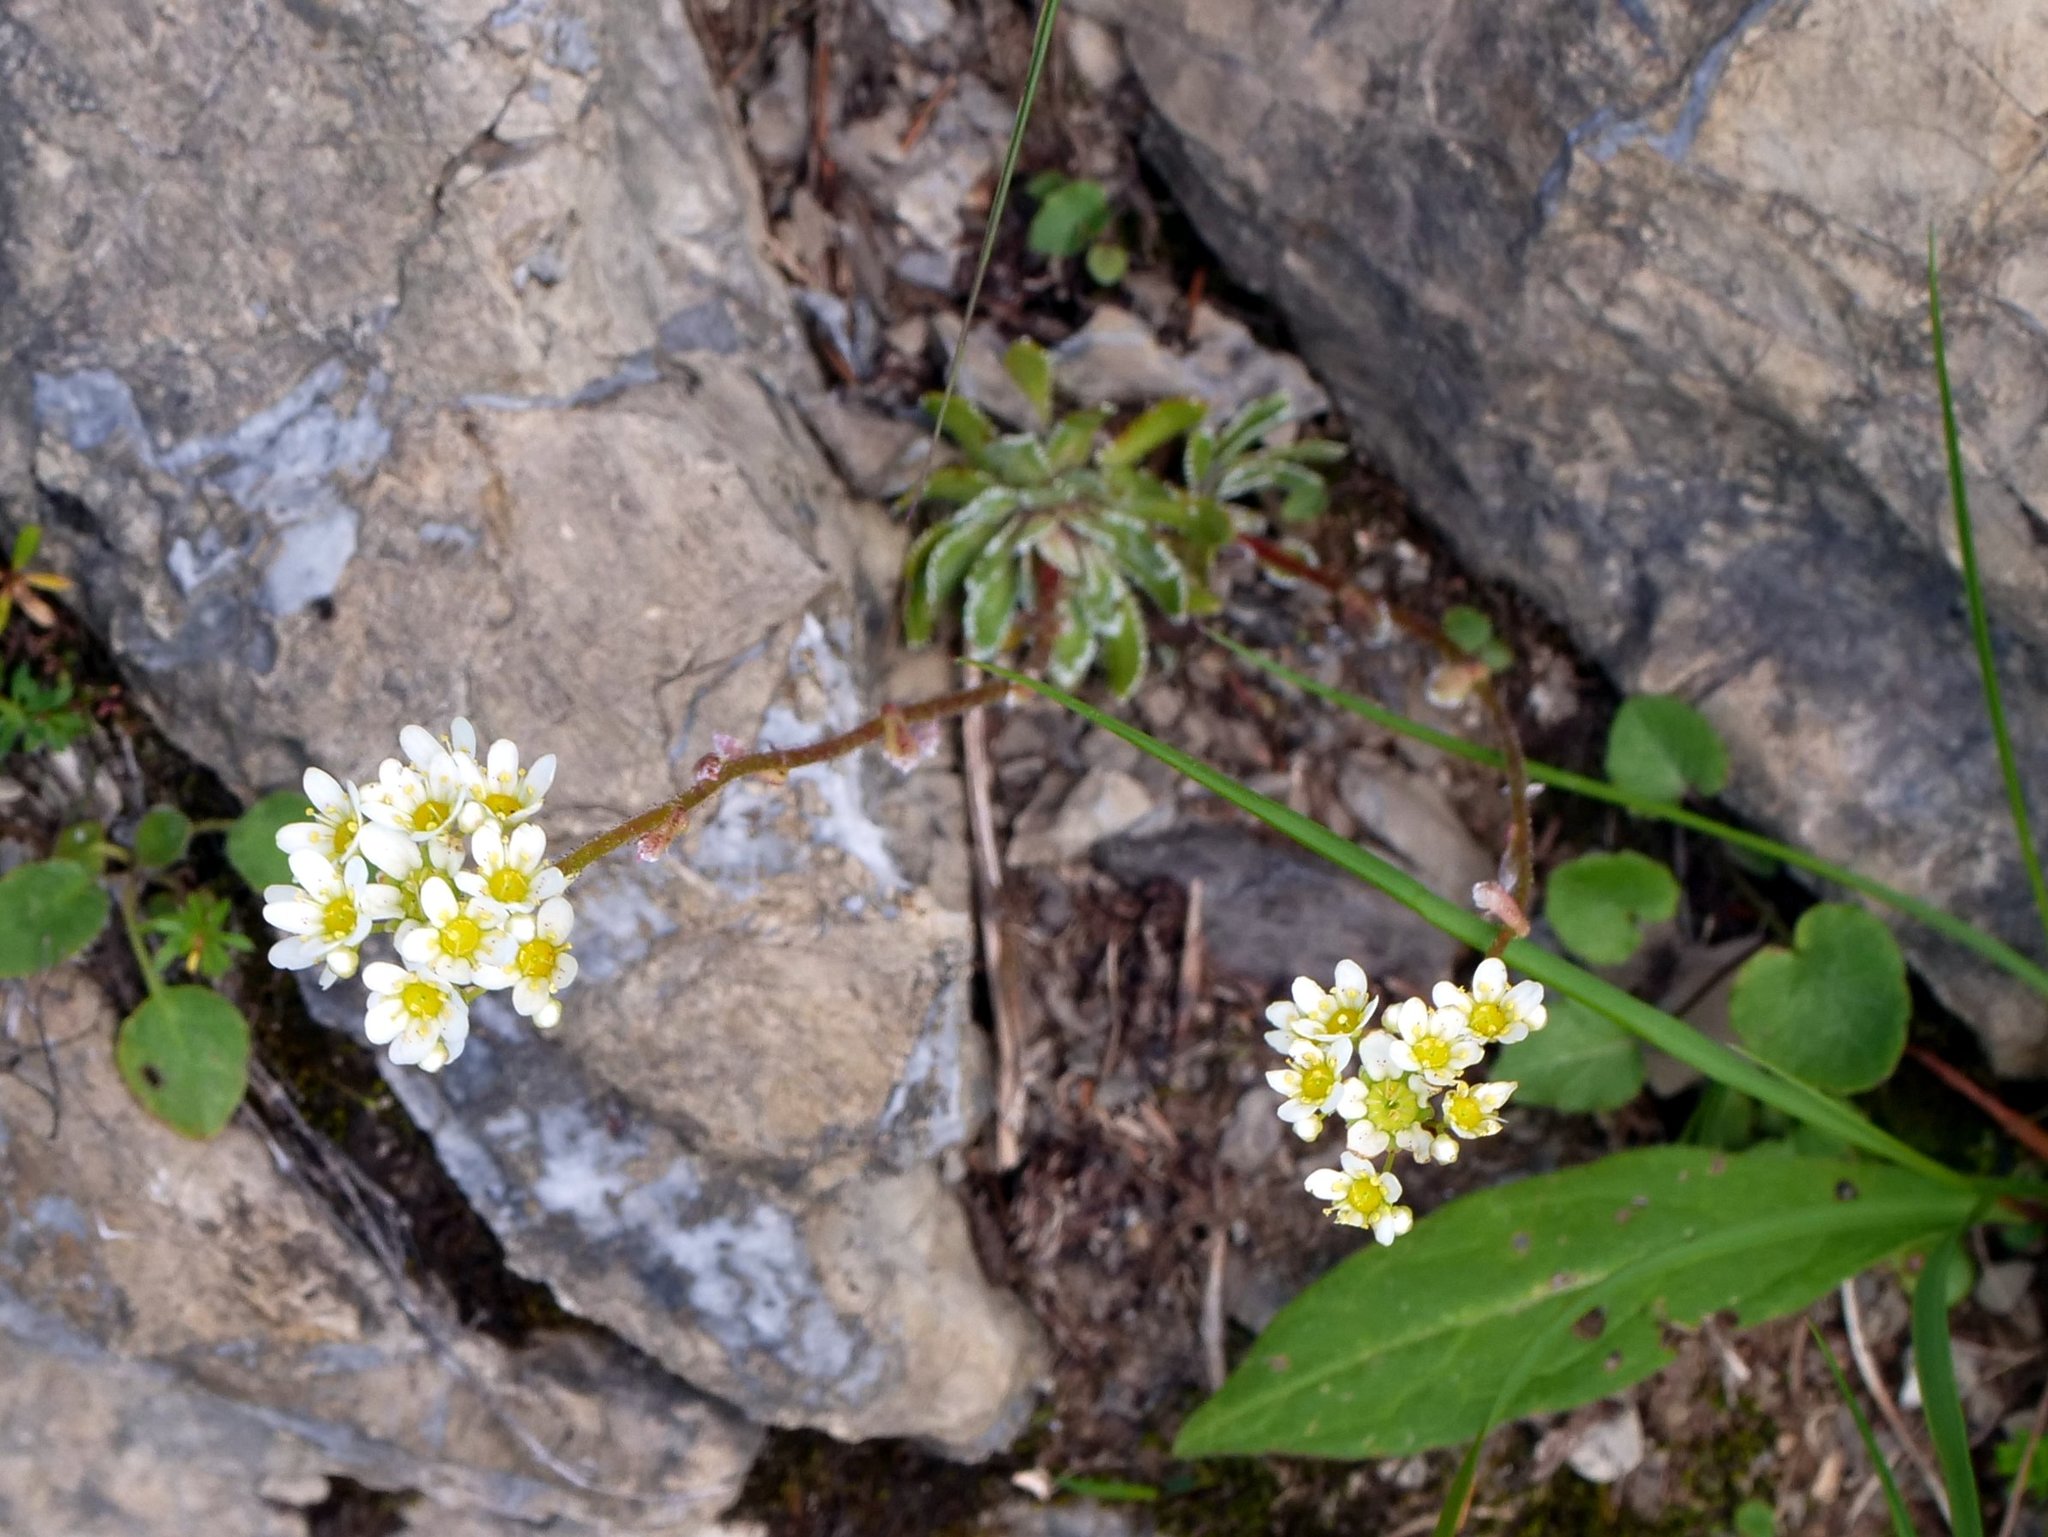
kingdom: Plantae
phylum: Tracheophyta
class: Magnoliopsida
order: Saxifragales
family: Saxifragaceae
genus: Saxifraga
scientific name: Saxifraga paniculata
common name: Livelong saxifrage
